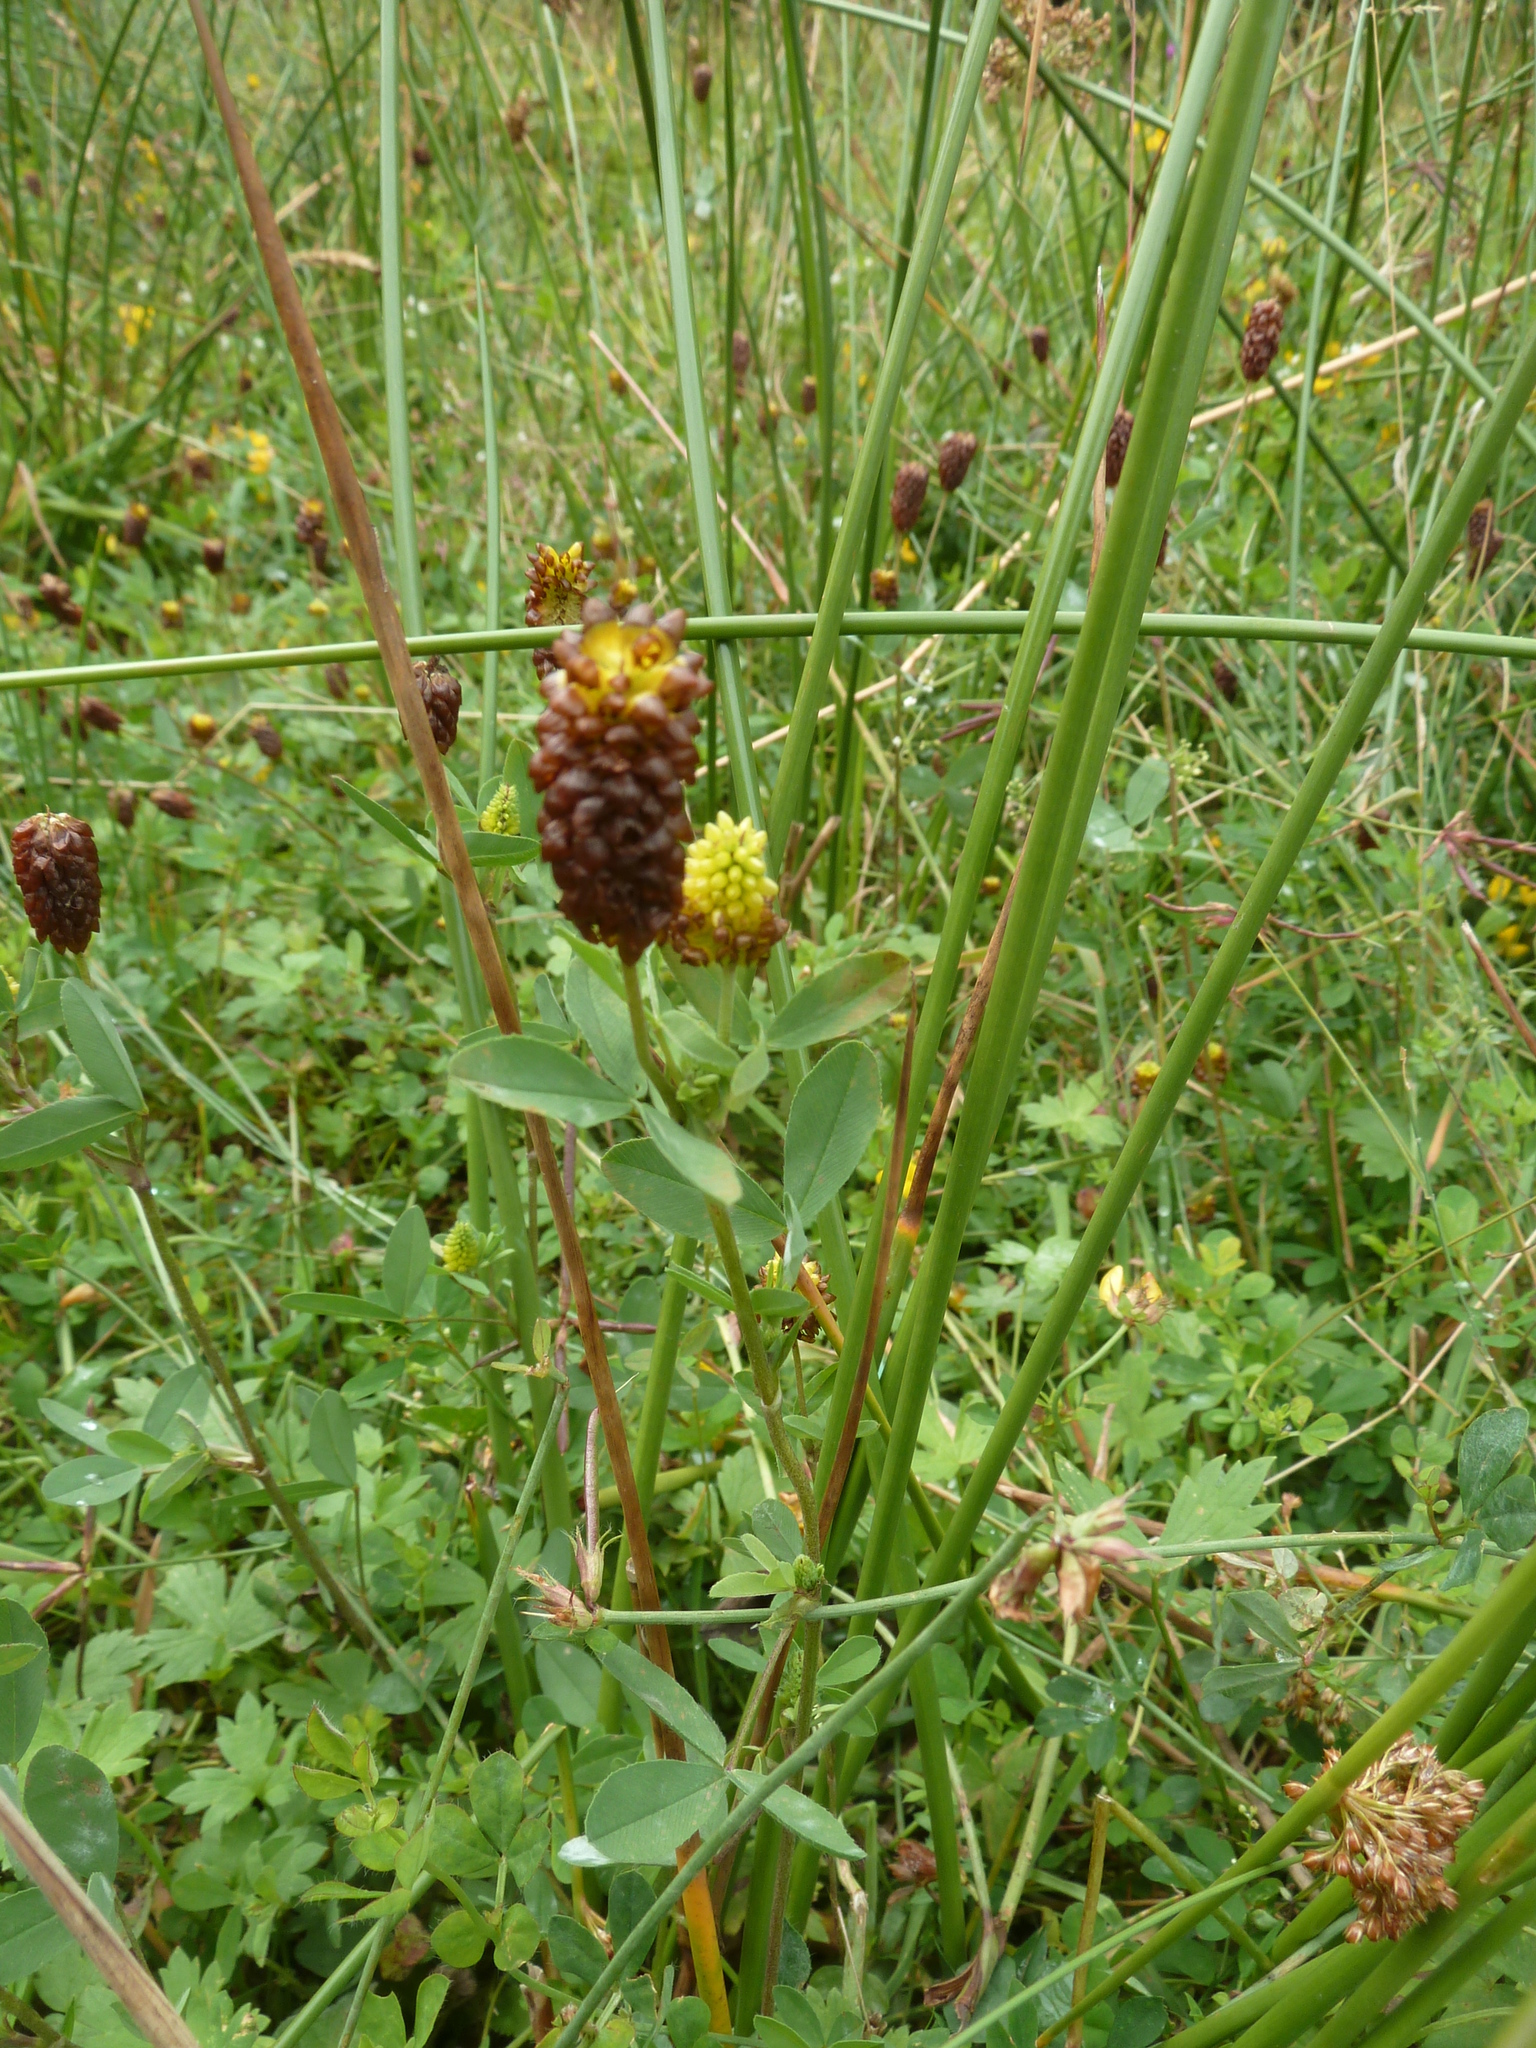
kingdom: Plantae
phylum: Tracheophyta
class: Magnoliopsida
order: Fabales
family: Fabaceae
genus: Trifolium
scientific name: Trifolium spadiceum
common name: Brown moor clover
